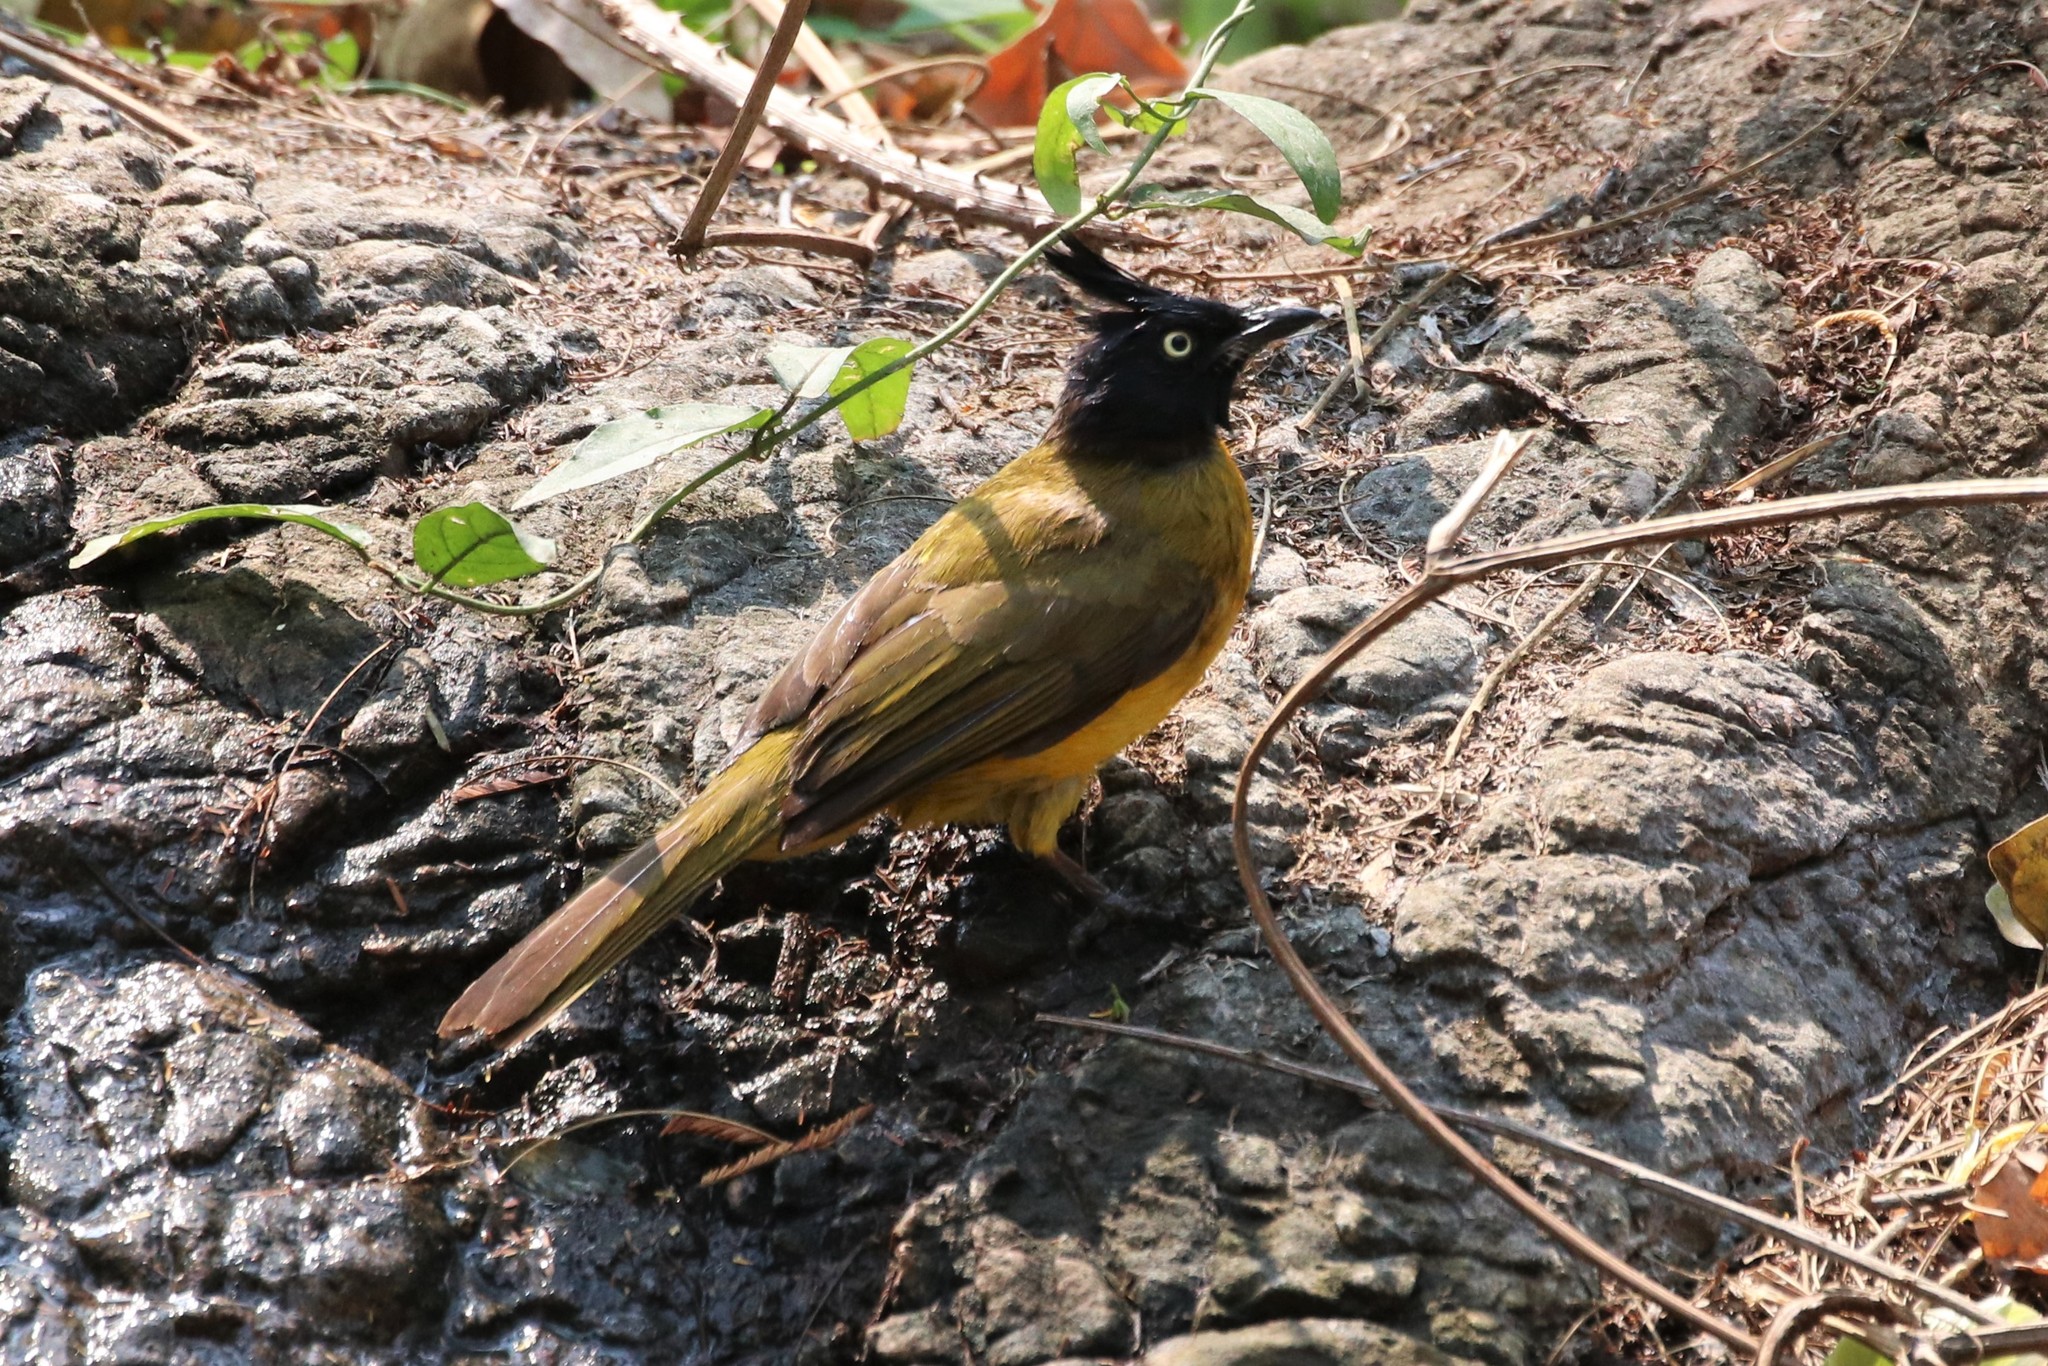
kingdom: Animalia
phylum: Chordata
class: Aves
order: Passeriformes
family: Pycnonotidae
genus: Pycnonotus
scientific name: Pycnonotus flaviventris
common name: Black-crested bulbul
